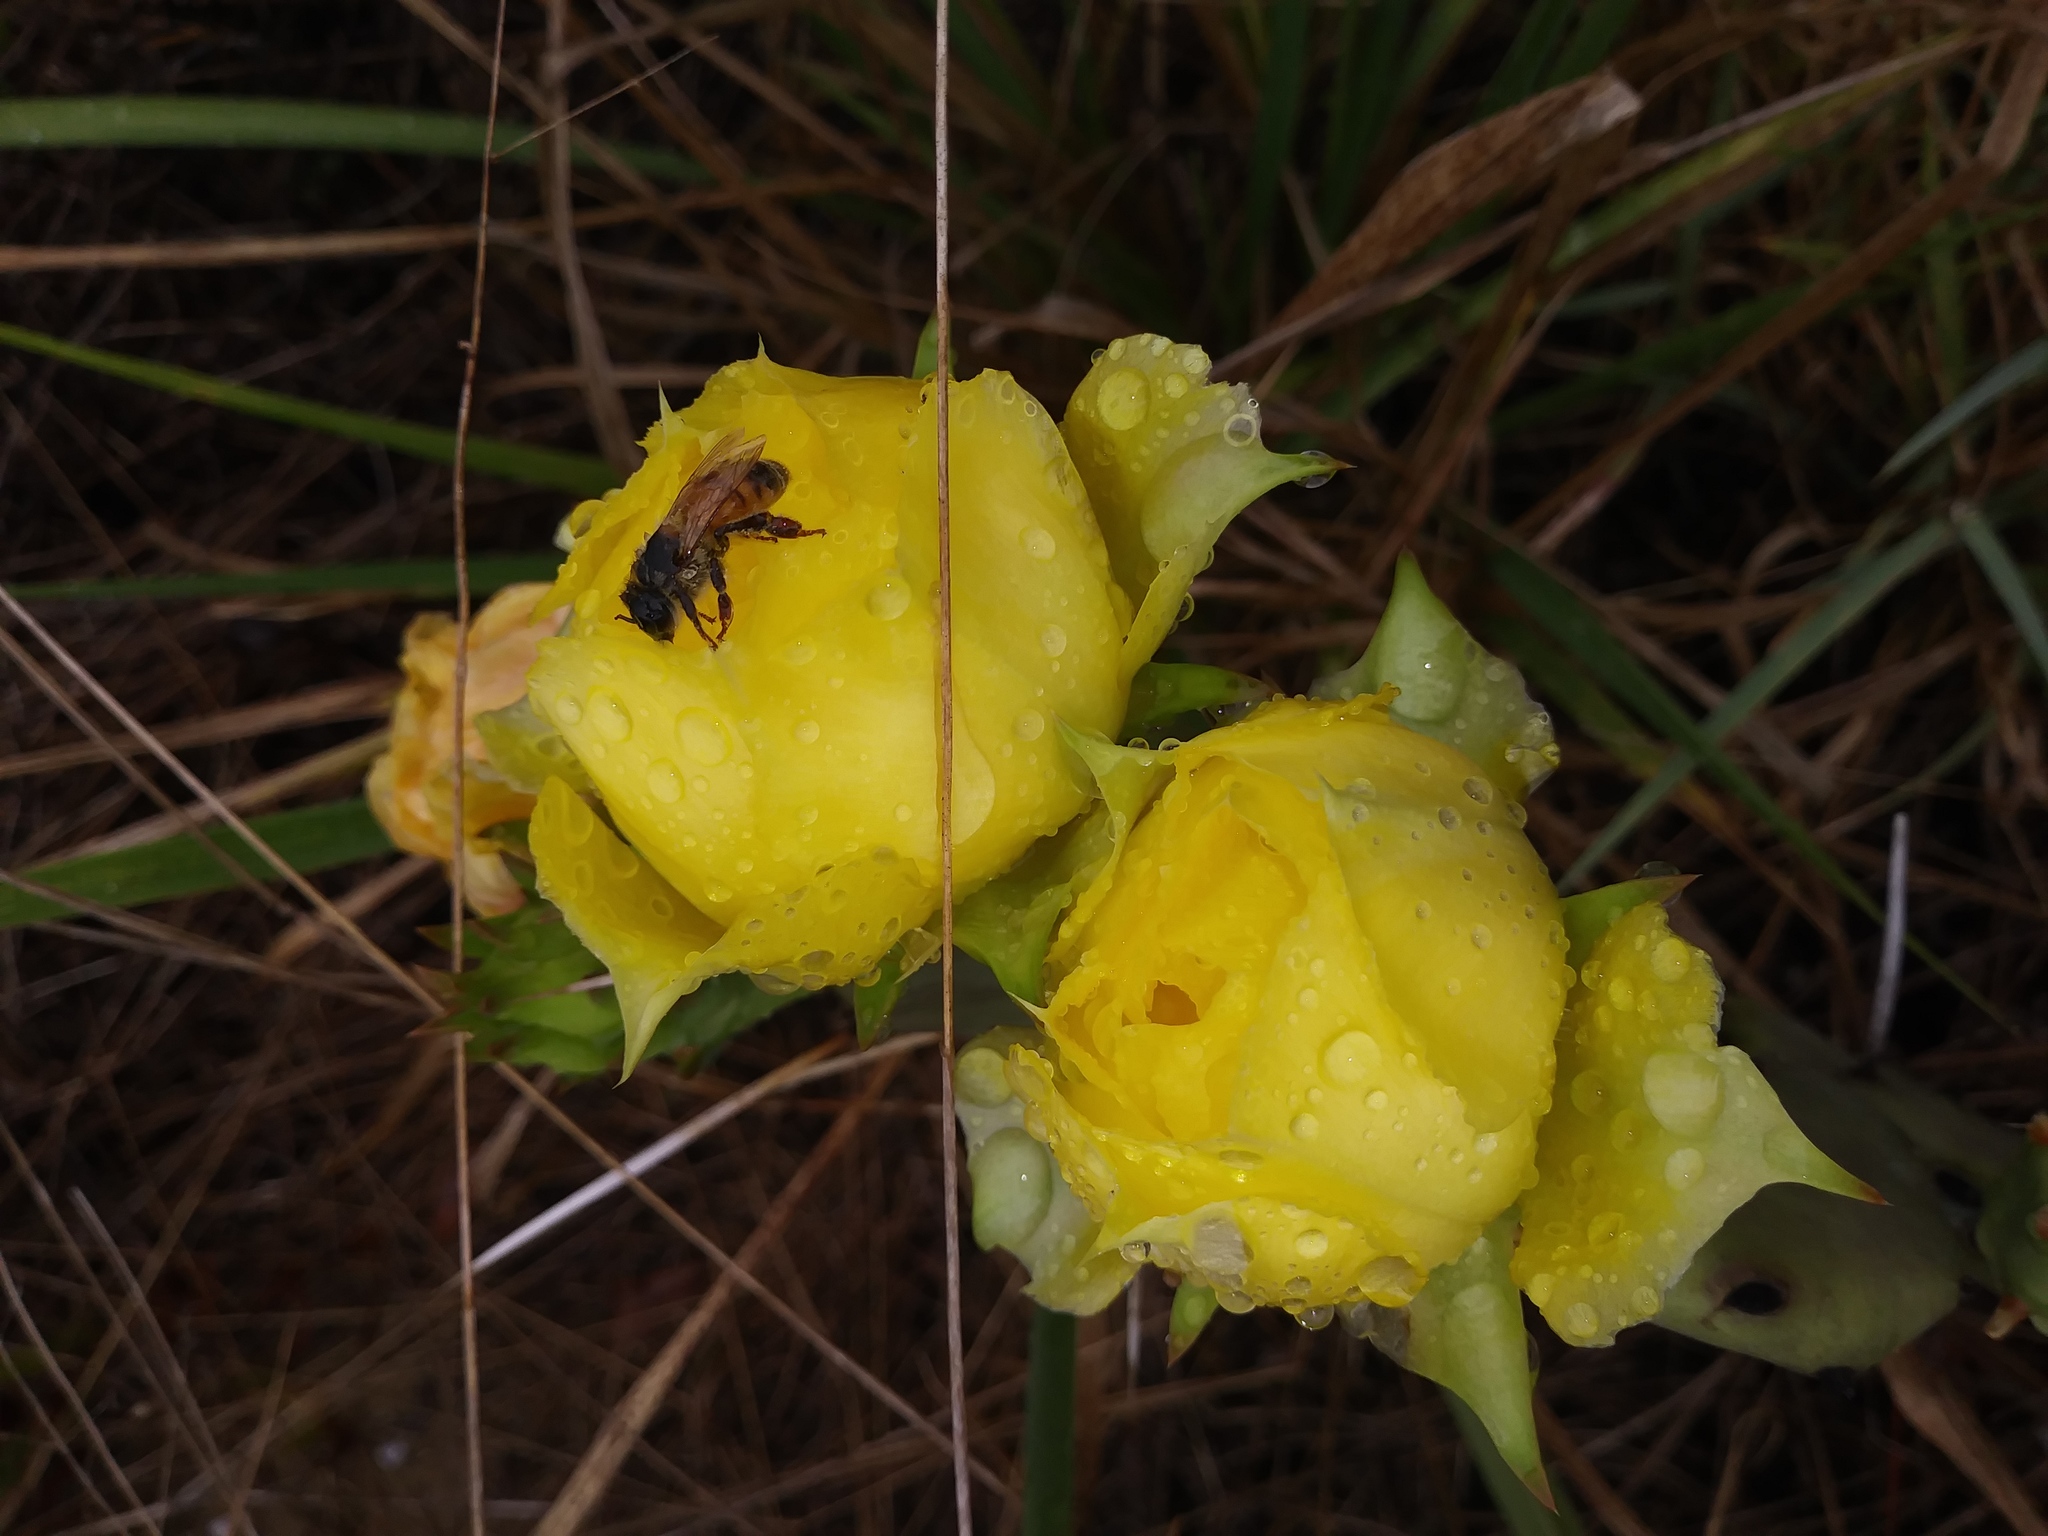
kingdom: Animalia
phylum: Arthropoda
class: Insecta
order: Hymenoptera
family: Apidae
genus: Apis
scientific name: Apis mellifera
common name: Honey bee
